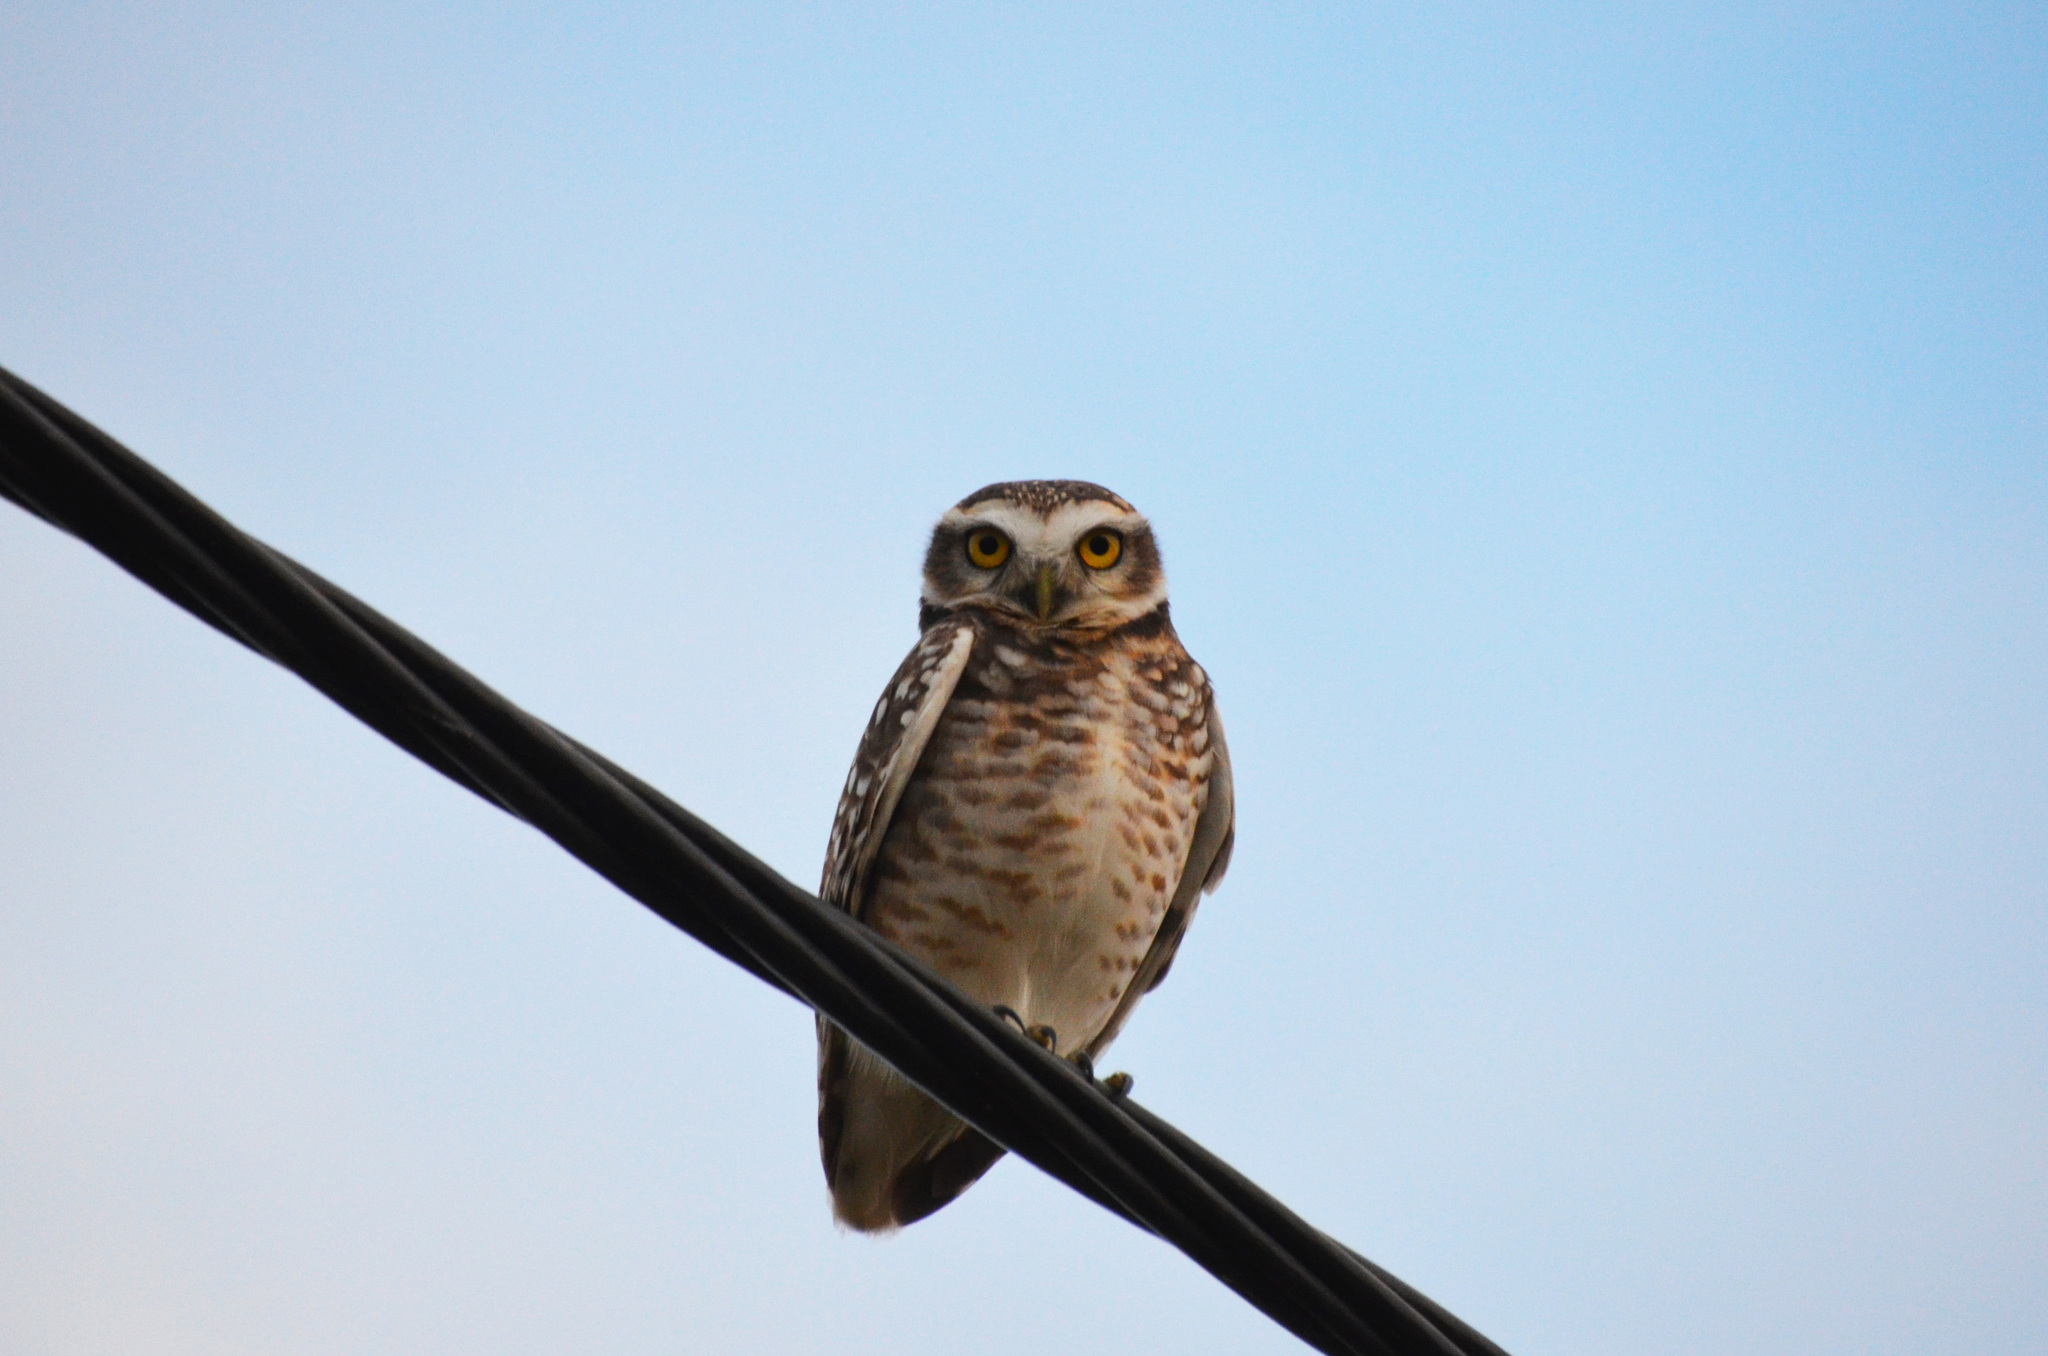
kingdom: Animalia
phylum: Chordata
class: Aves
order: Strigiformes
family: Strigidae
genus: Athene
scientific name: Athene cunicularia
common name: Burrowing owl
